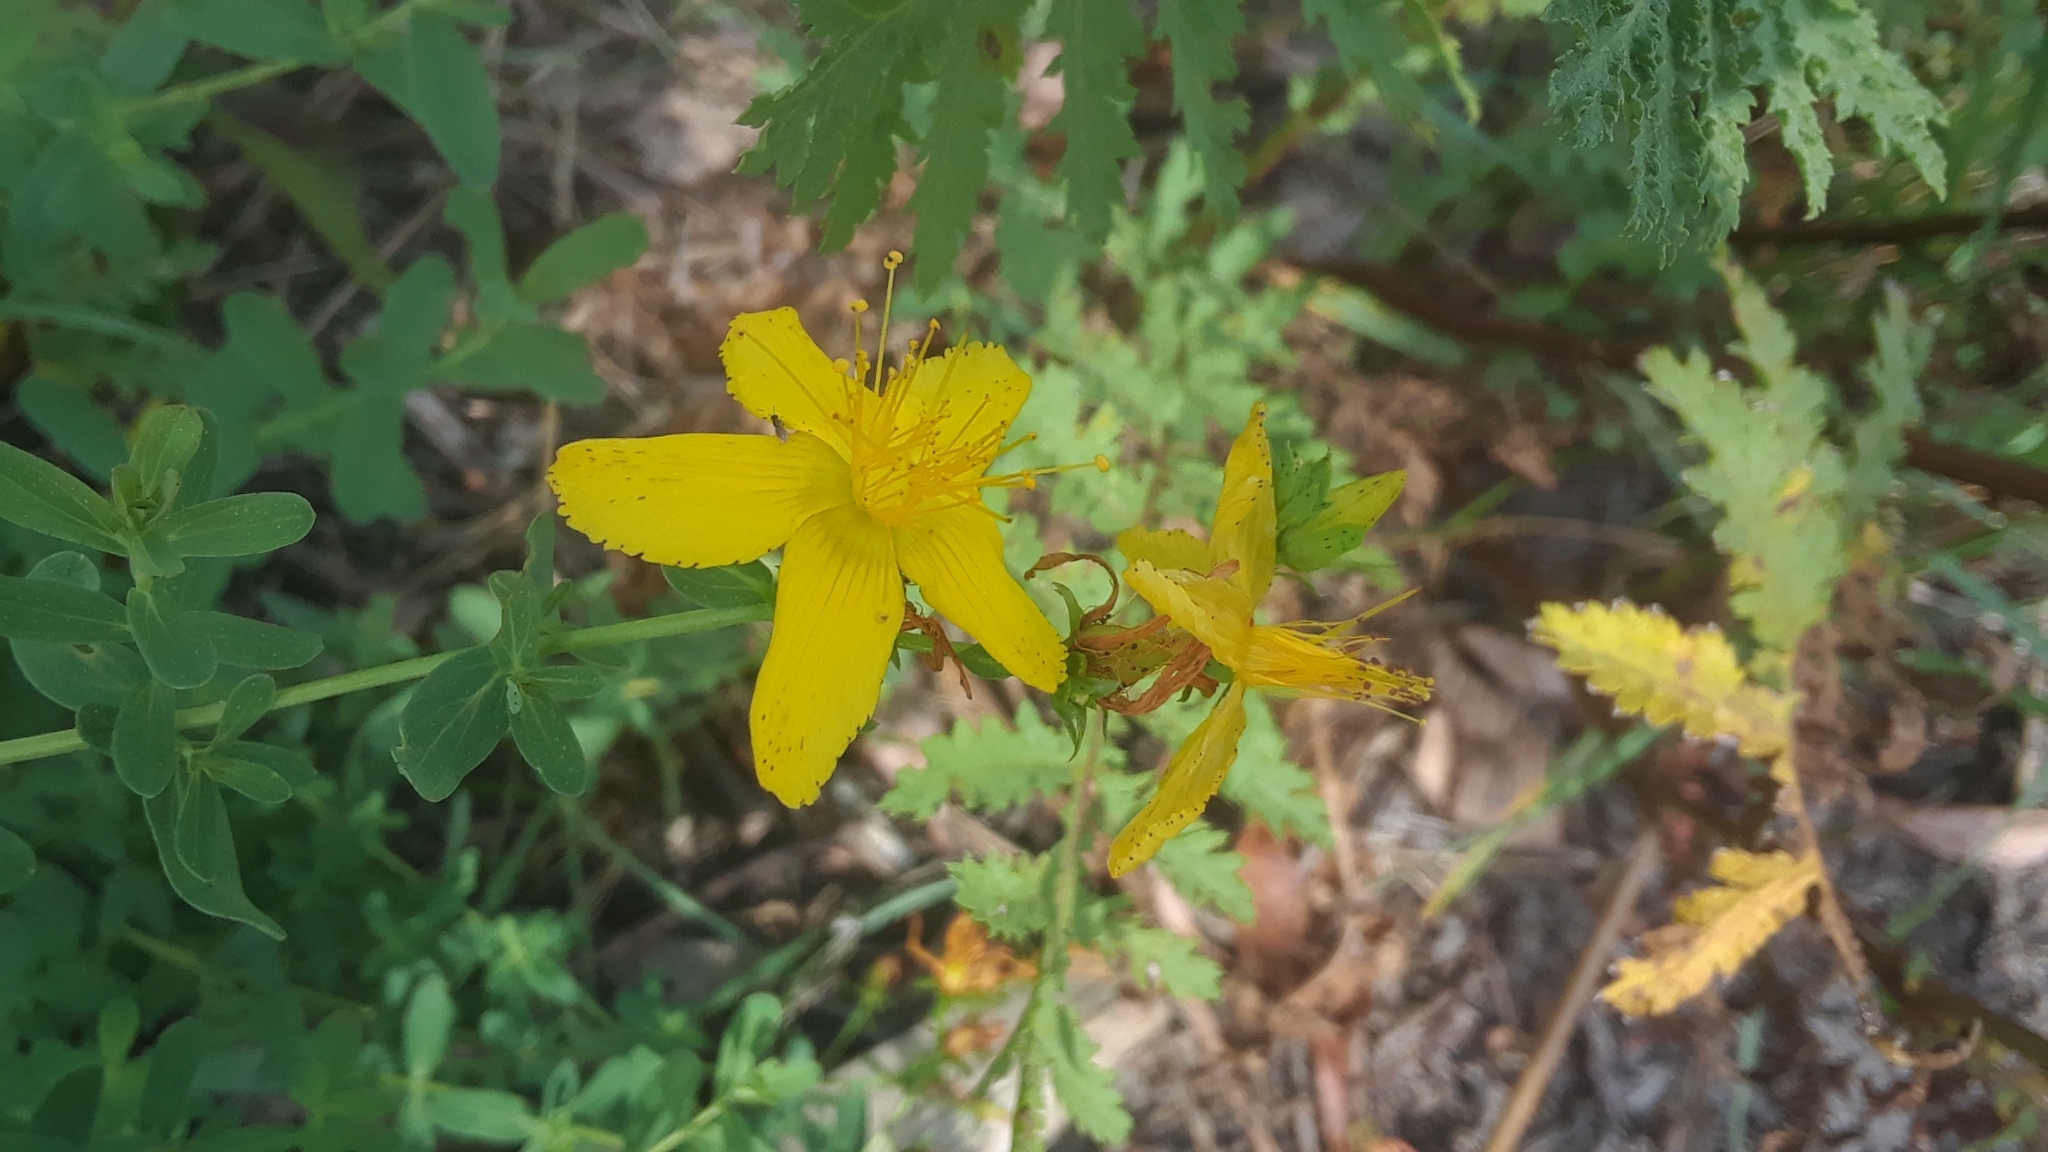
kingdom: Plantae
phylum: Tracheophyta
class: Magnoliopsida
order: Malpighiales
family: Hypericaceae
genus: Hypericum
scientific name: Hypericum perforatum
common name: Common st. johnswort
